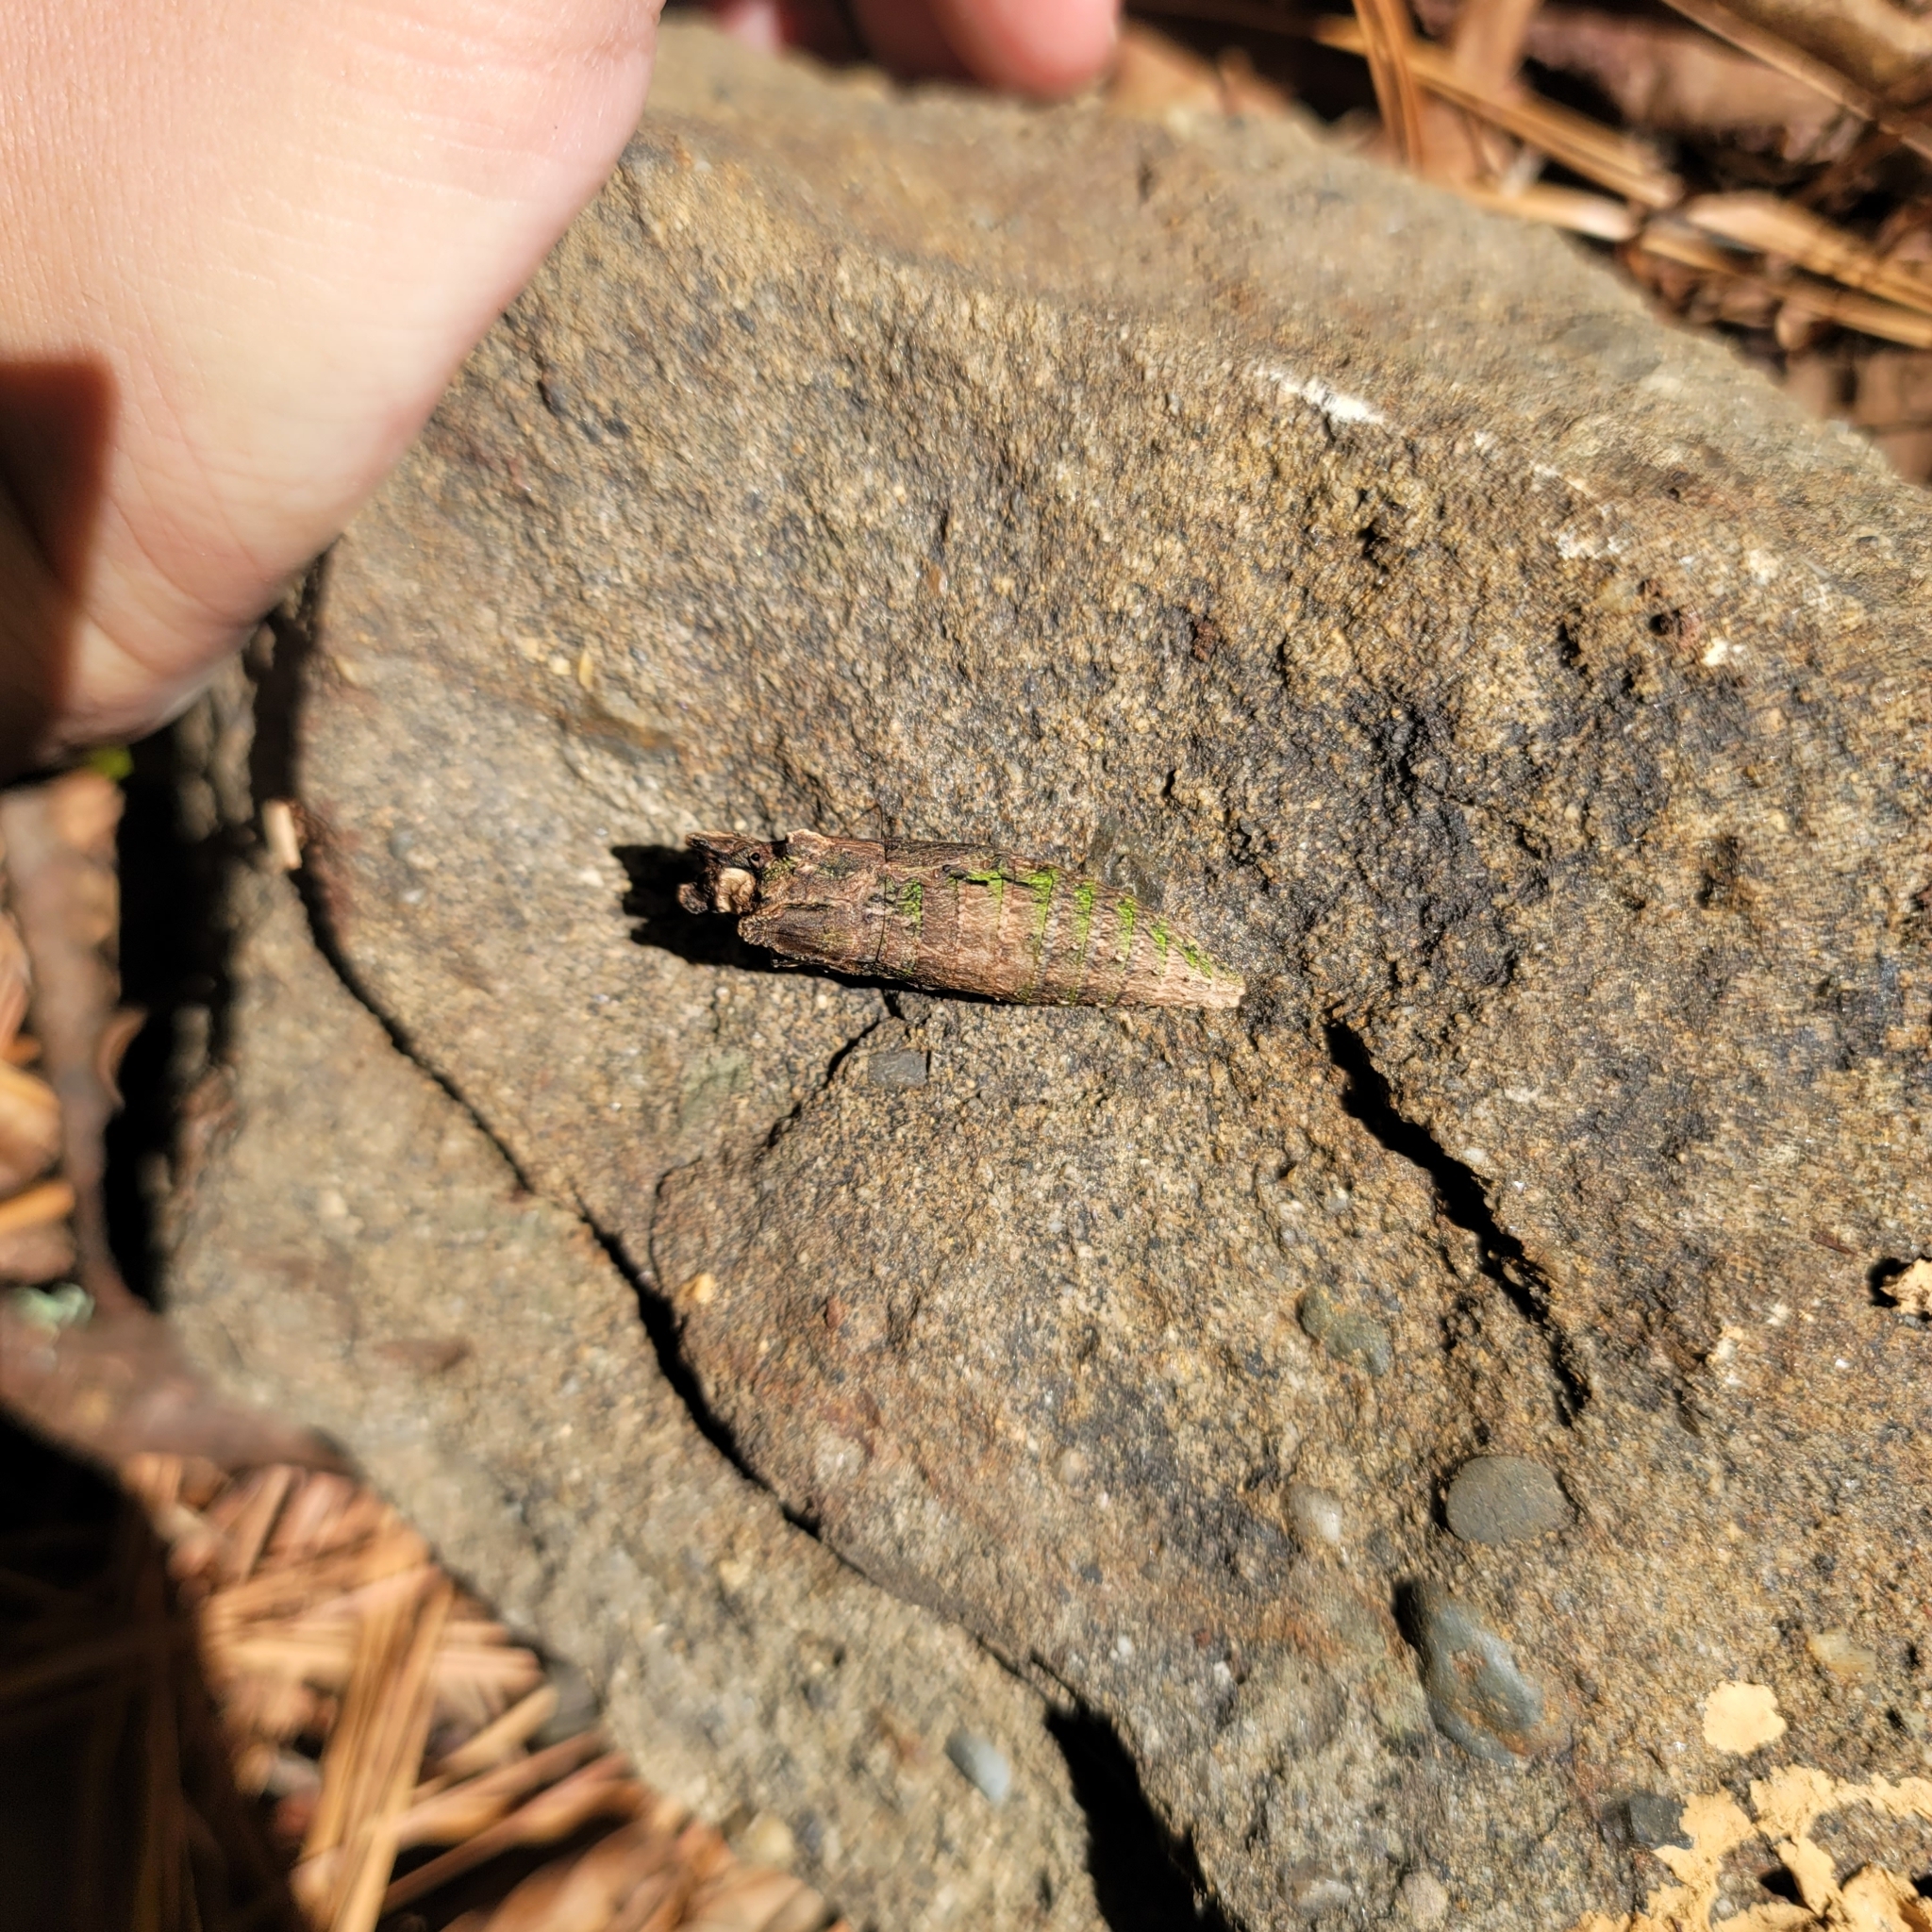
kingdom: Animalia
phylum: Arthropoda
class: Insecta
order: Lepidoptera
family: Papilionidae
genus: Papilio
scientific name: Papilio glaucus
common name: Tiger swallowtail
